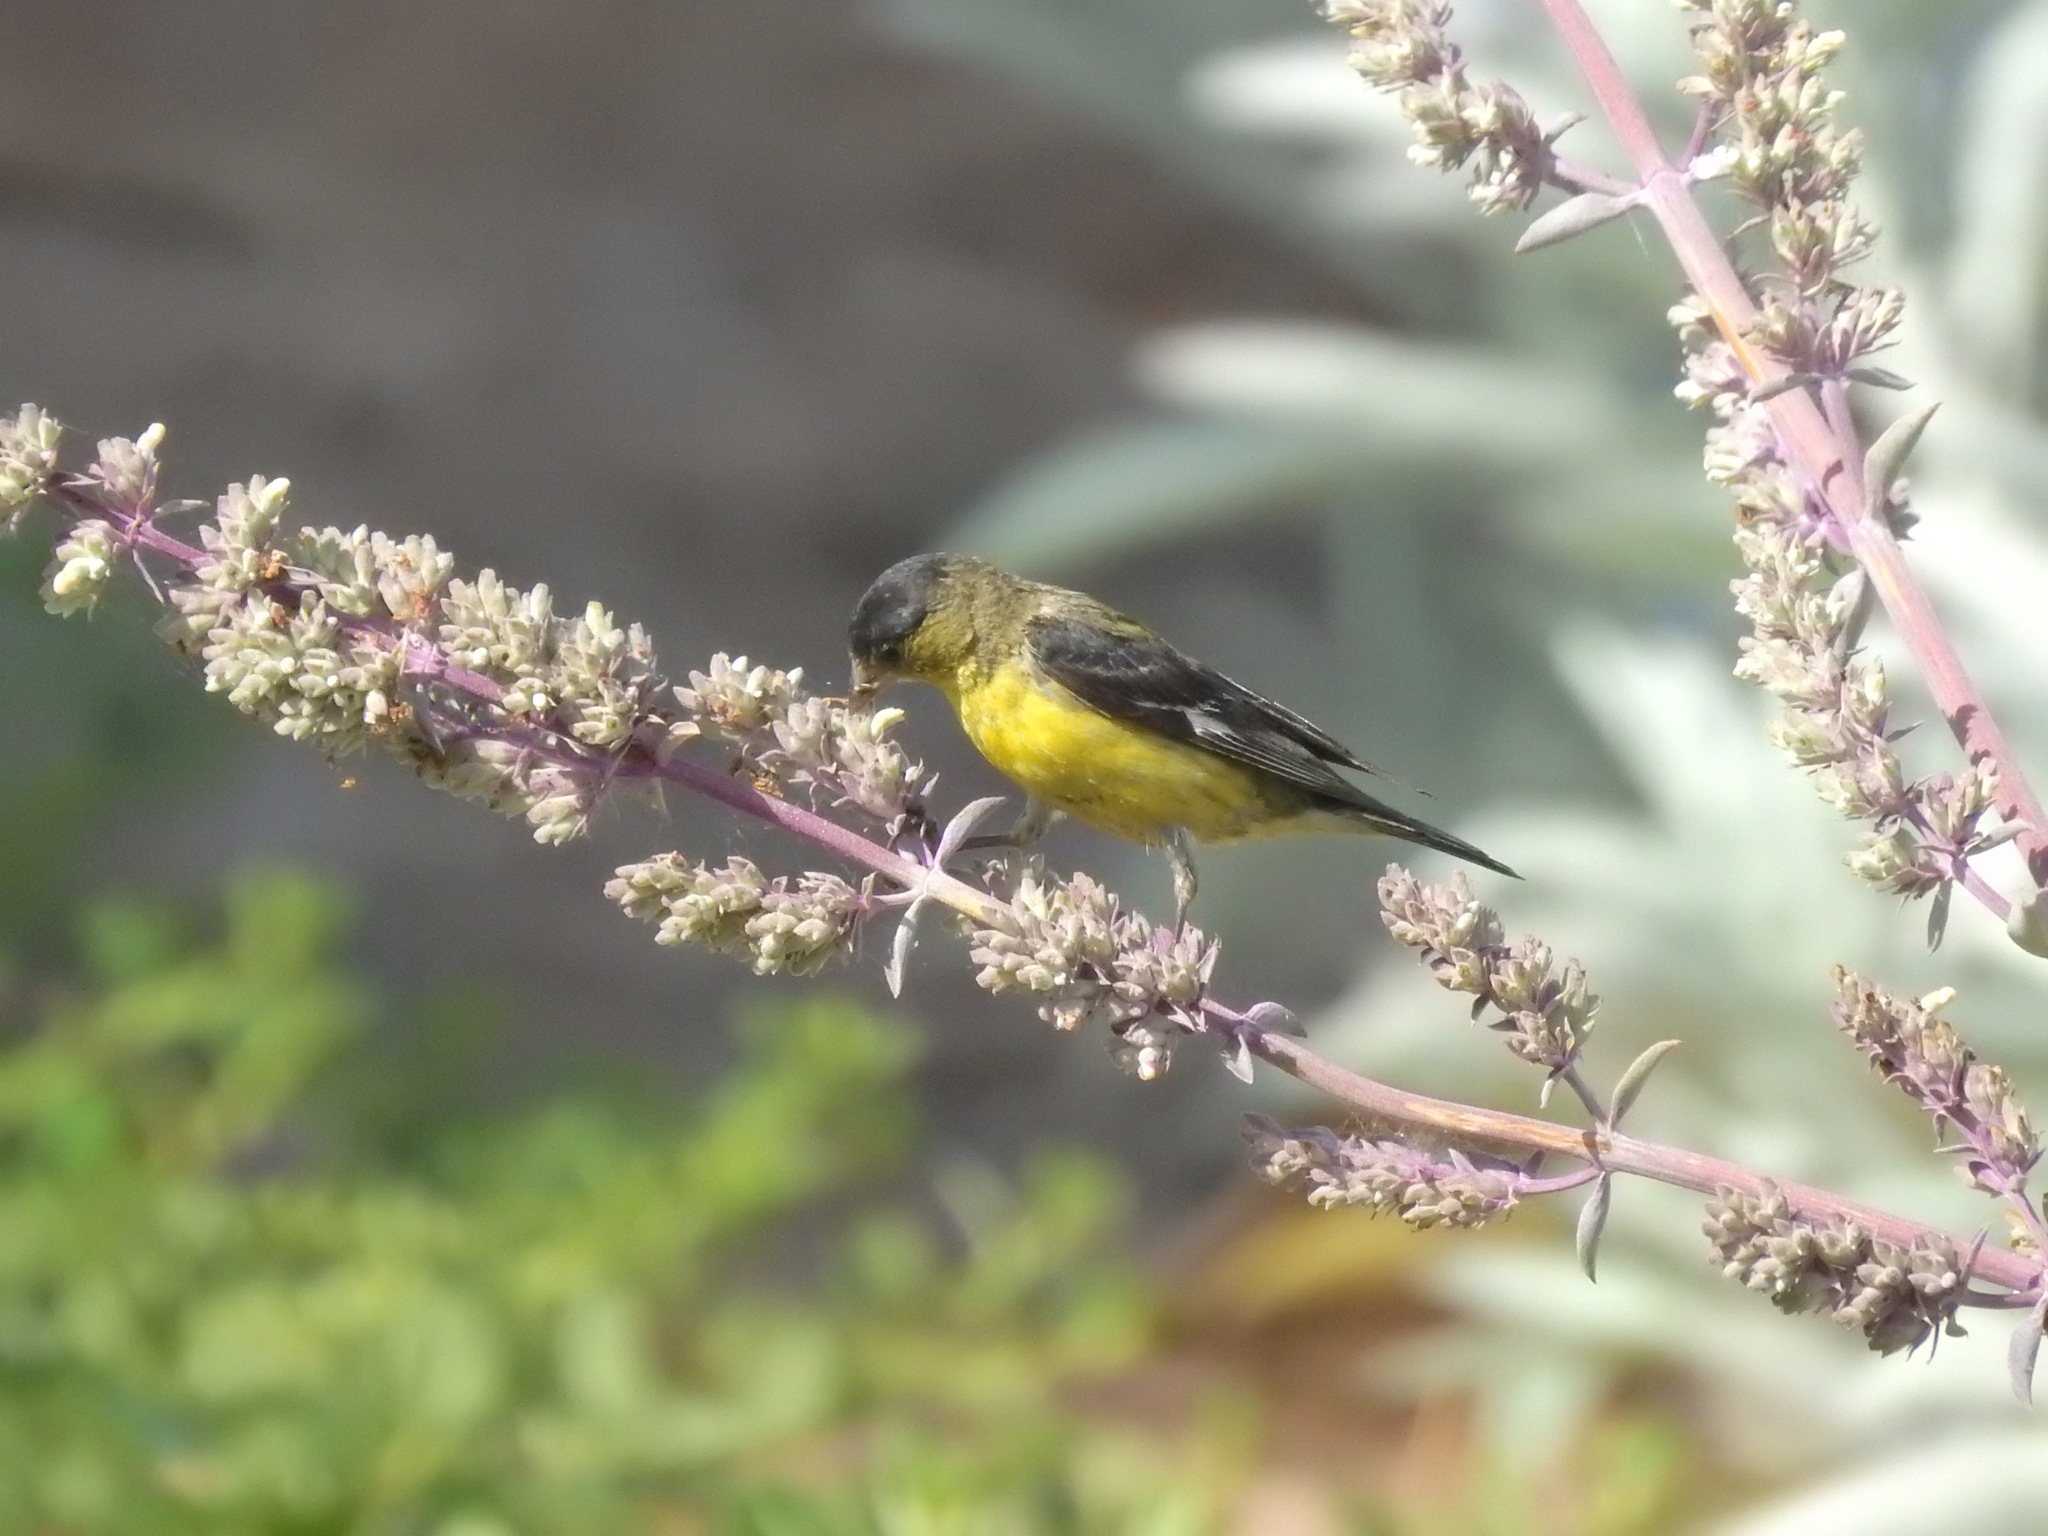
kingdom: Animalia
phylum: Chordata
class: Aves
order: Passeriformes
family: Fringillidae
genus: Spinus
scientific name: Spinus psaltria
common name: Lesser goldfinch
